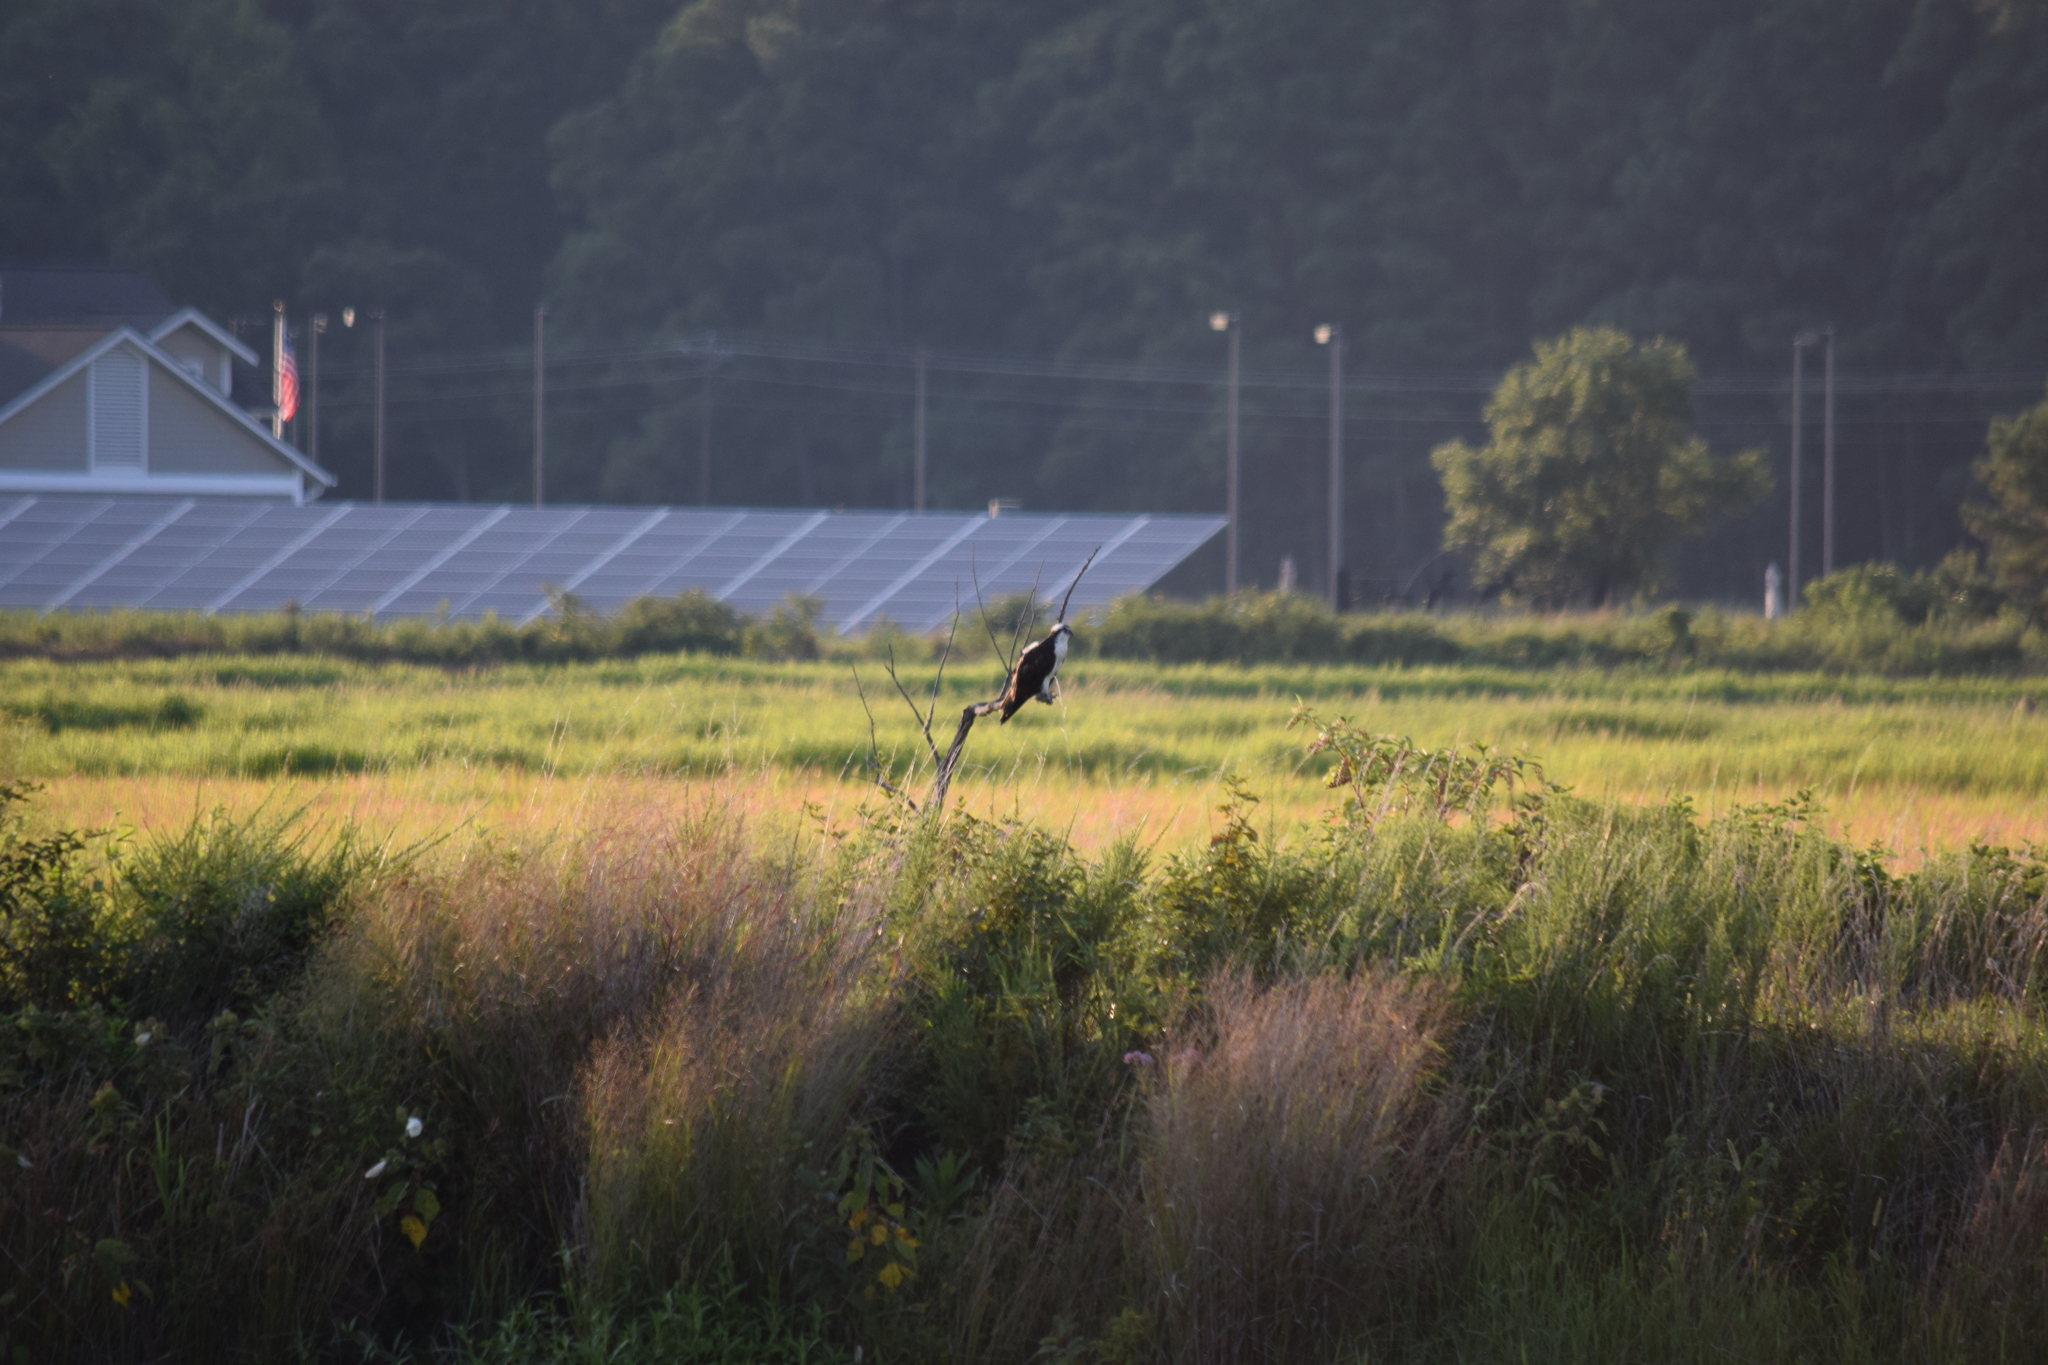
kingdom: Animalia
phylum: Chordata
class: Aves
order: Accipitriformes
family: Pandionidae
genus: Pandion
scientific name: Pandion haliaetus
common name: Osprey
